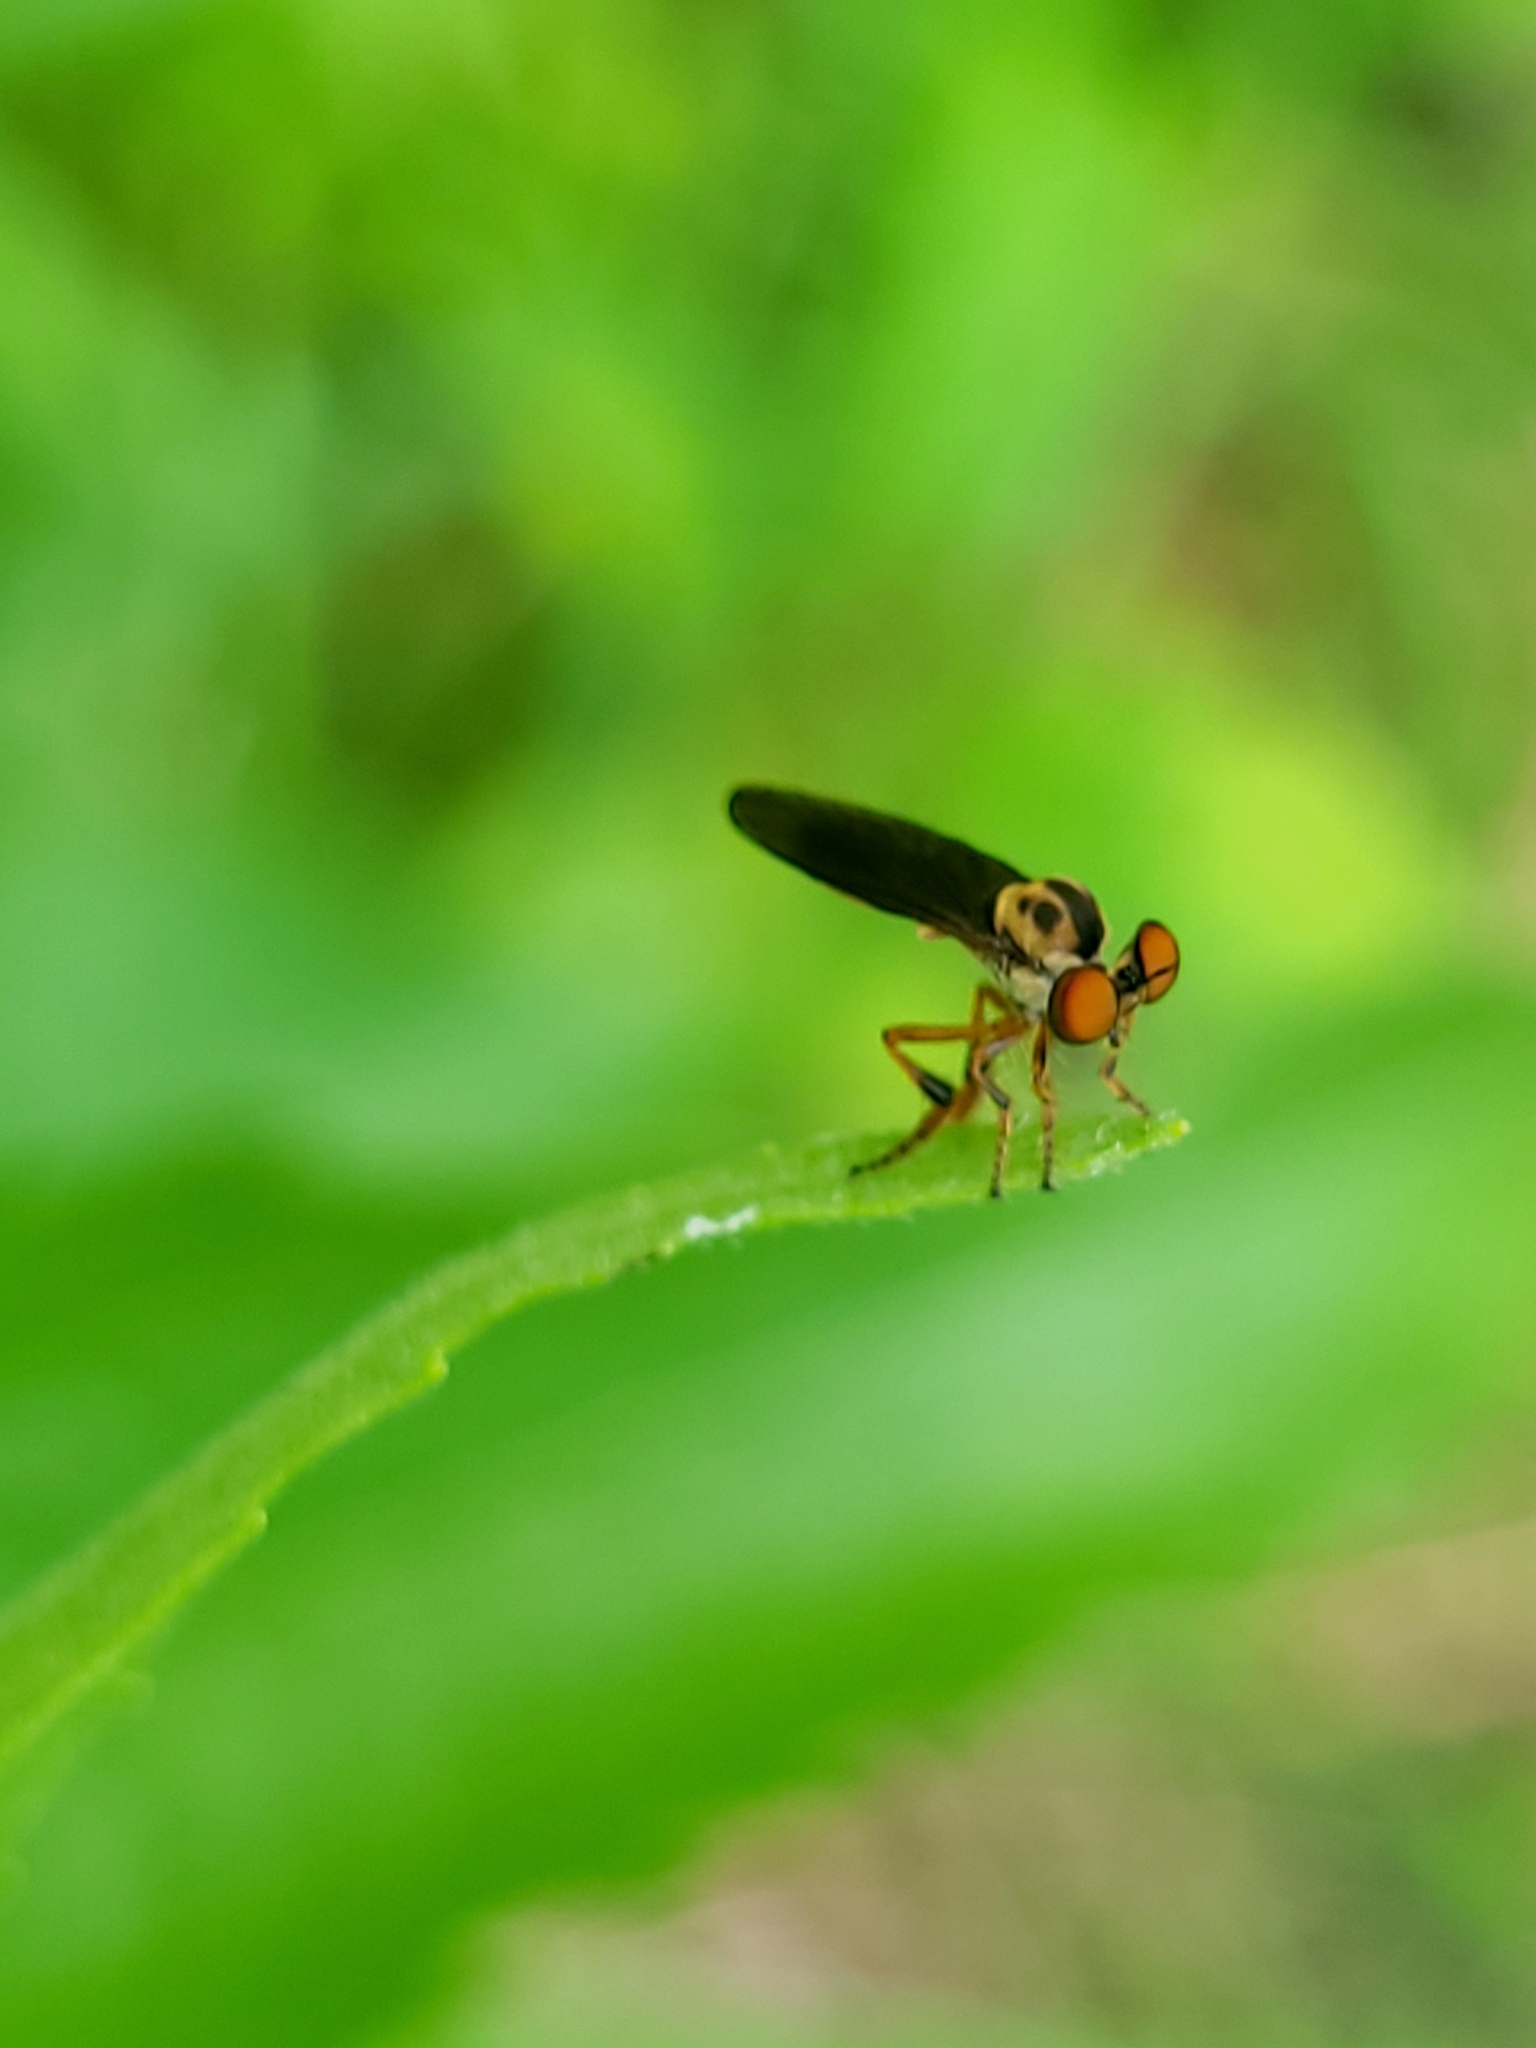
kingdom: Animalia
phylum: Arthropoda
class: Insecta
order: Diptera
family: Asilidae
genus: Holcocephala
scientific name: Holcocephala
